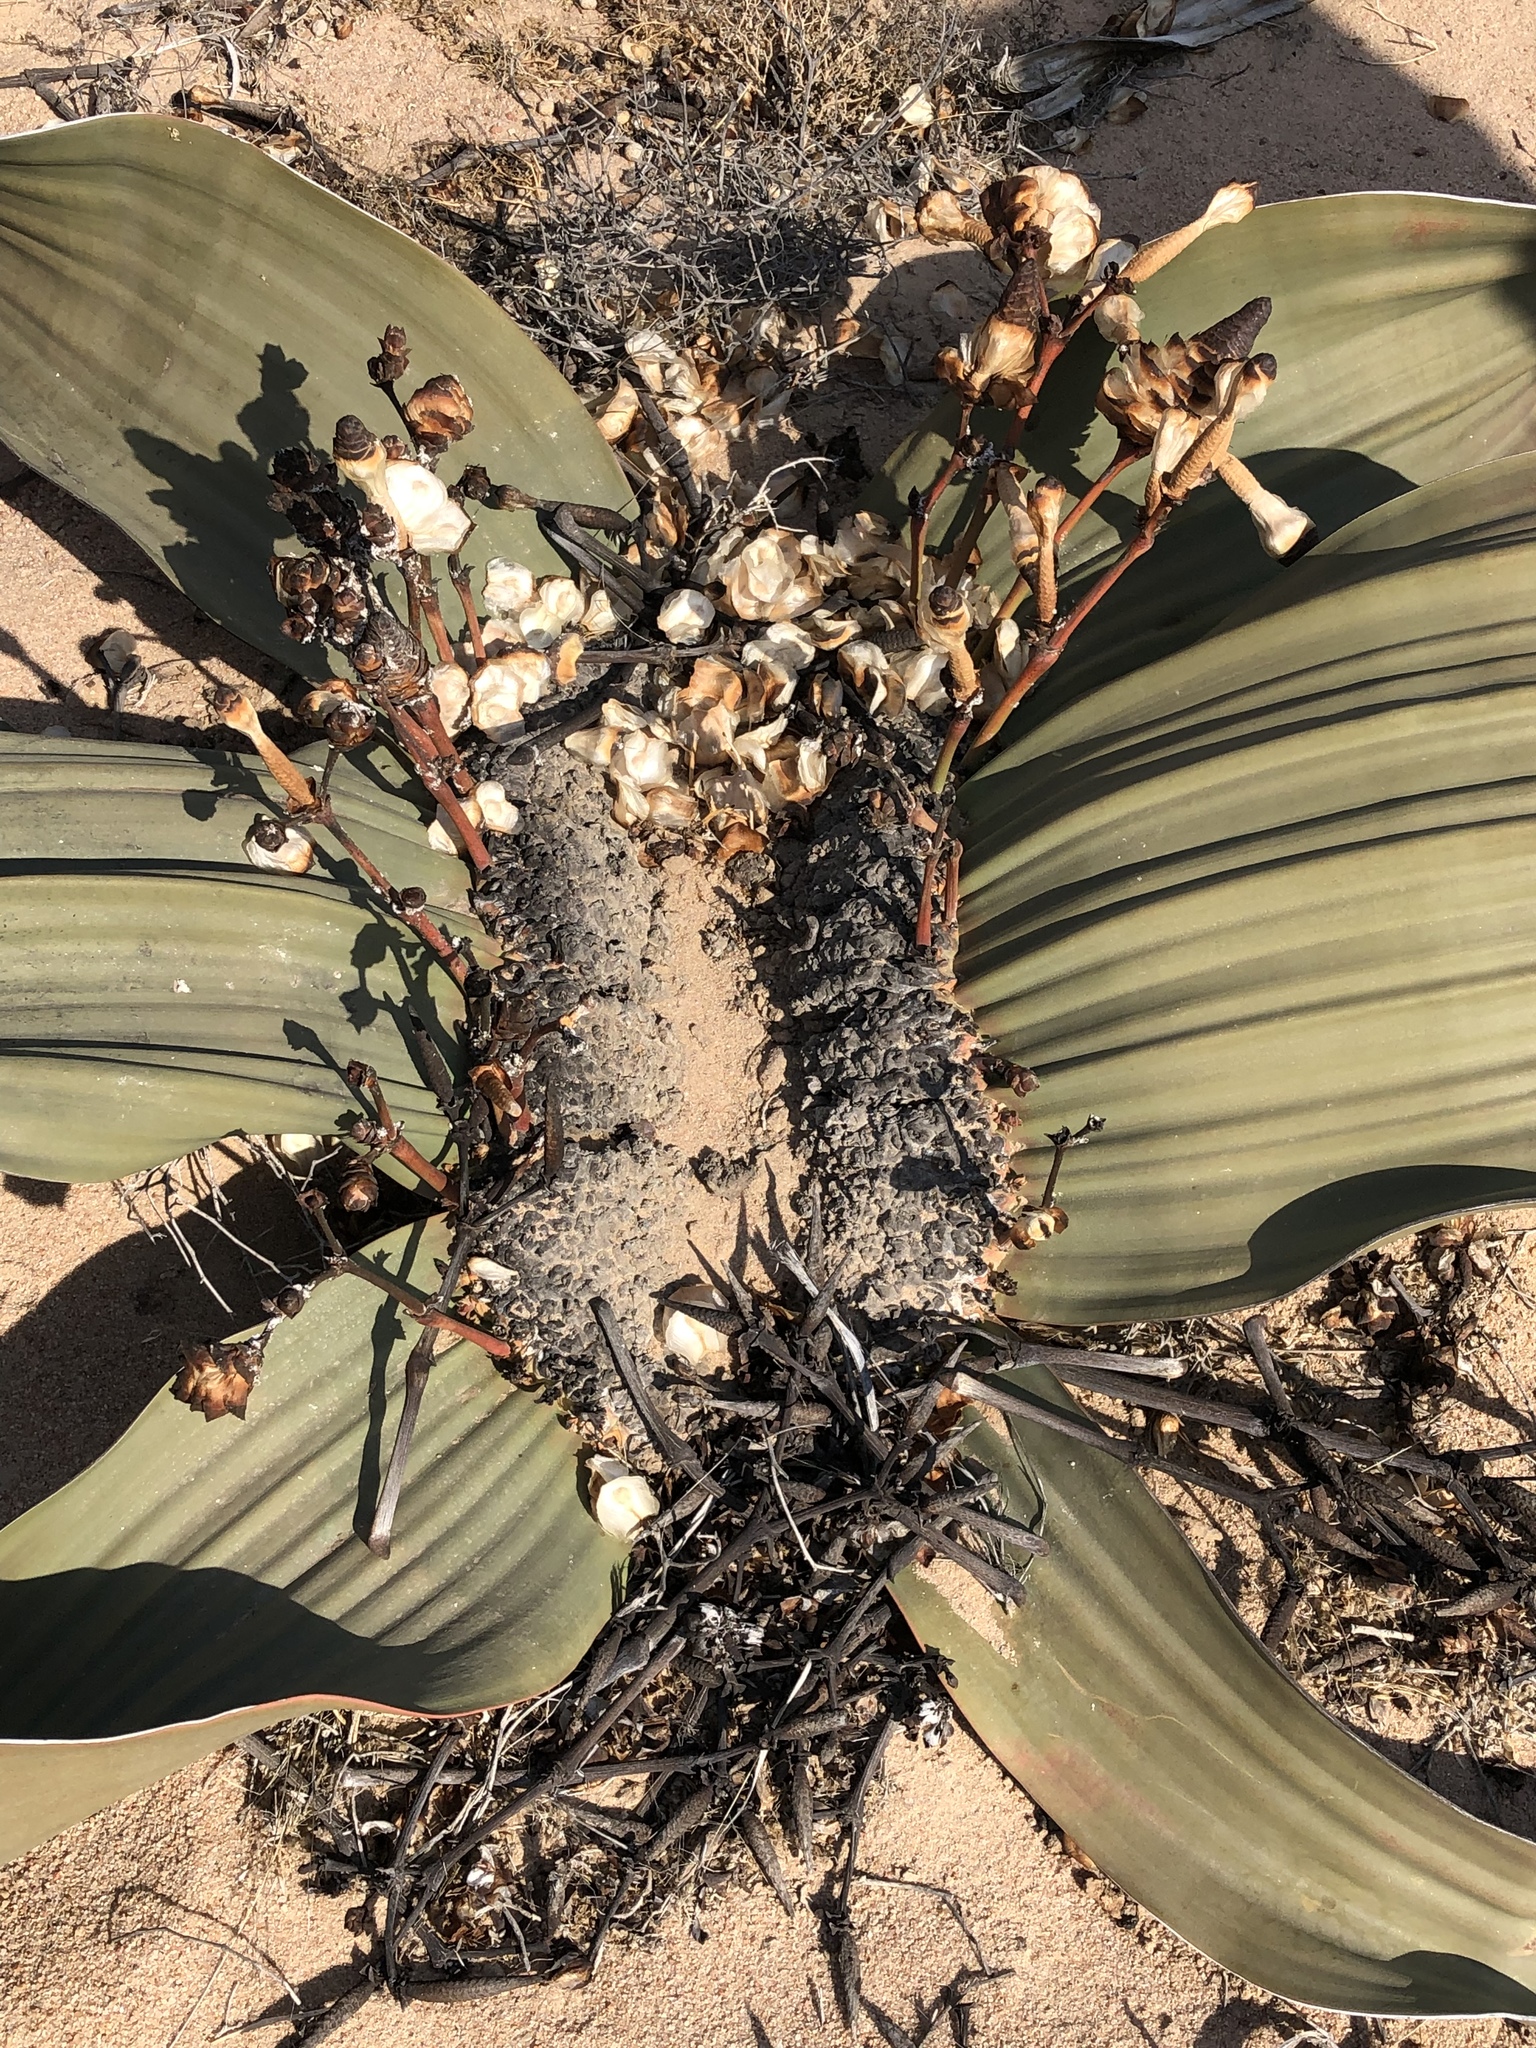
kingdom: Plantae
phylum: Tracheophyta
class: Gnetopsida
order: Welwitschiales
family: Welwitschiaceae
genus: Welwitschia
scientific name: Welwitschia mirabilis
